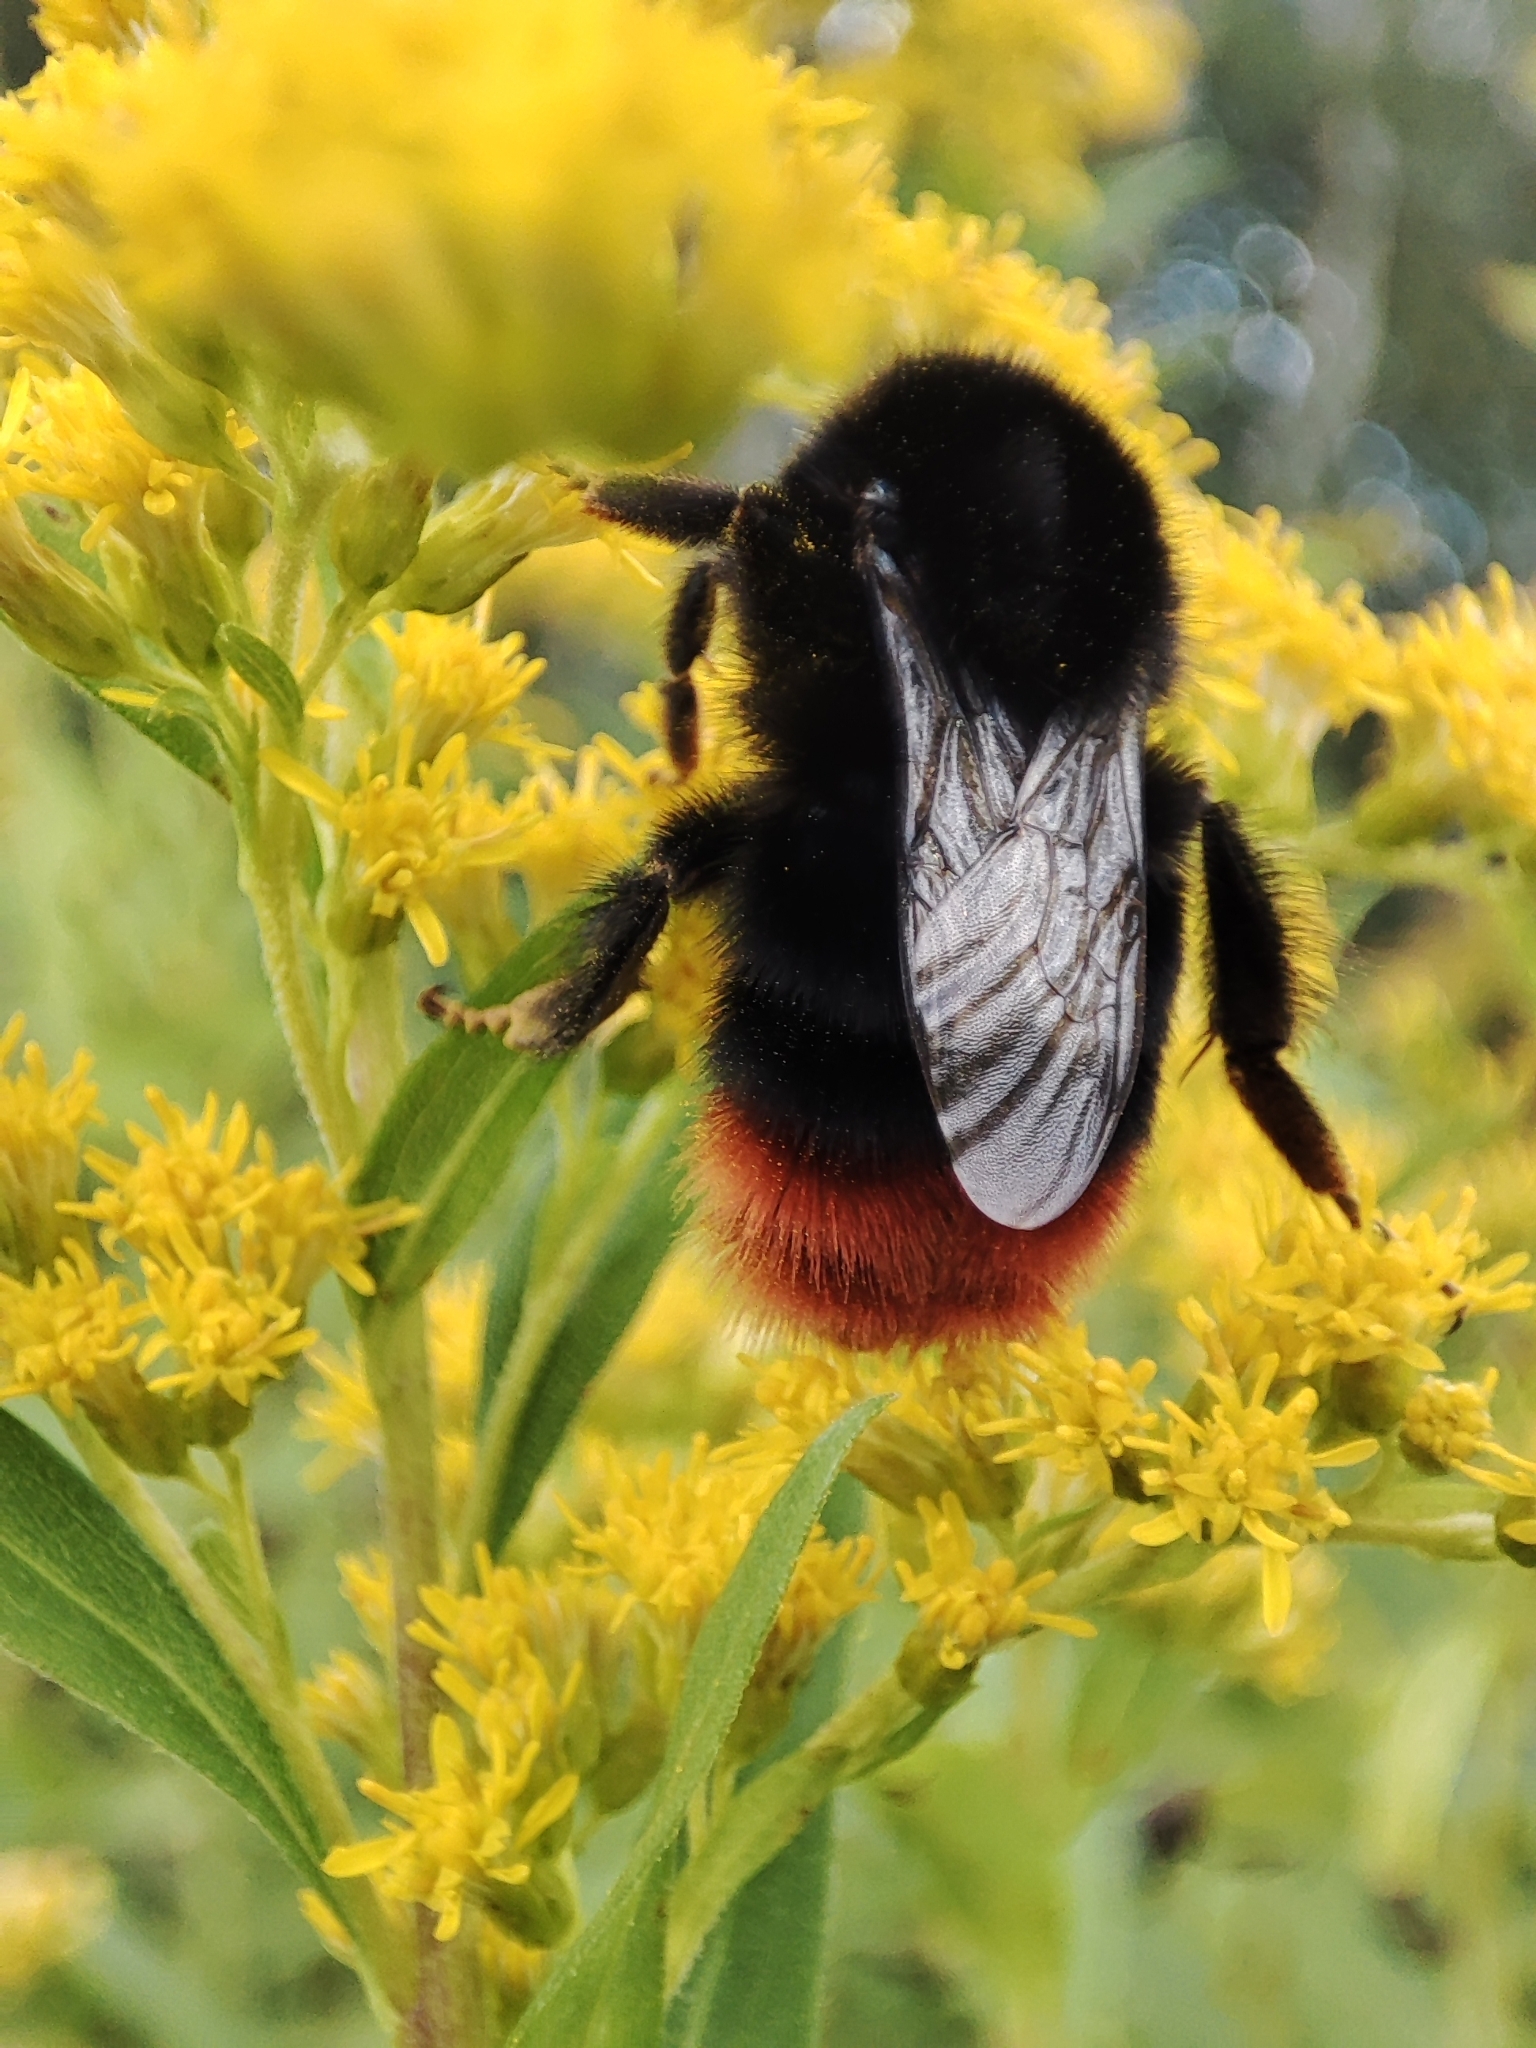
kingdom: Animalia
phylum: Arthropoda
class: Insecta
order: Hymenoptera
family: Apidae
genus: Bombus
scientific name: Bombus lapidarius
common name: Large red-tailed humble-bee
